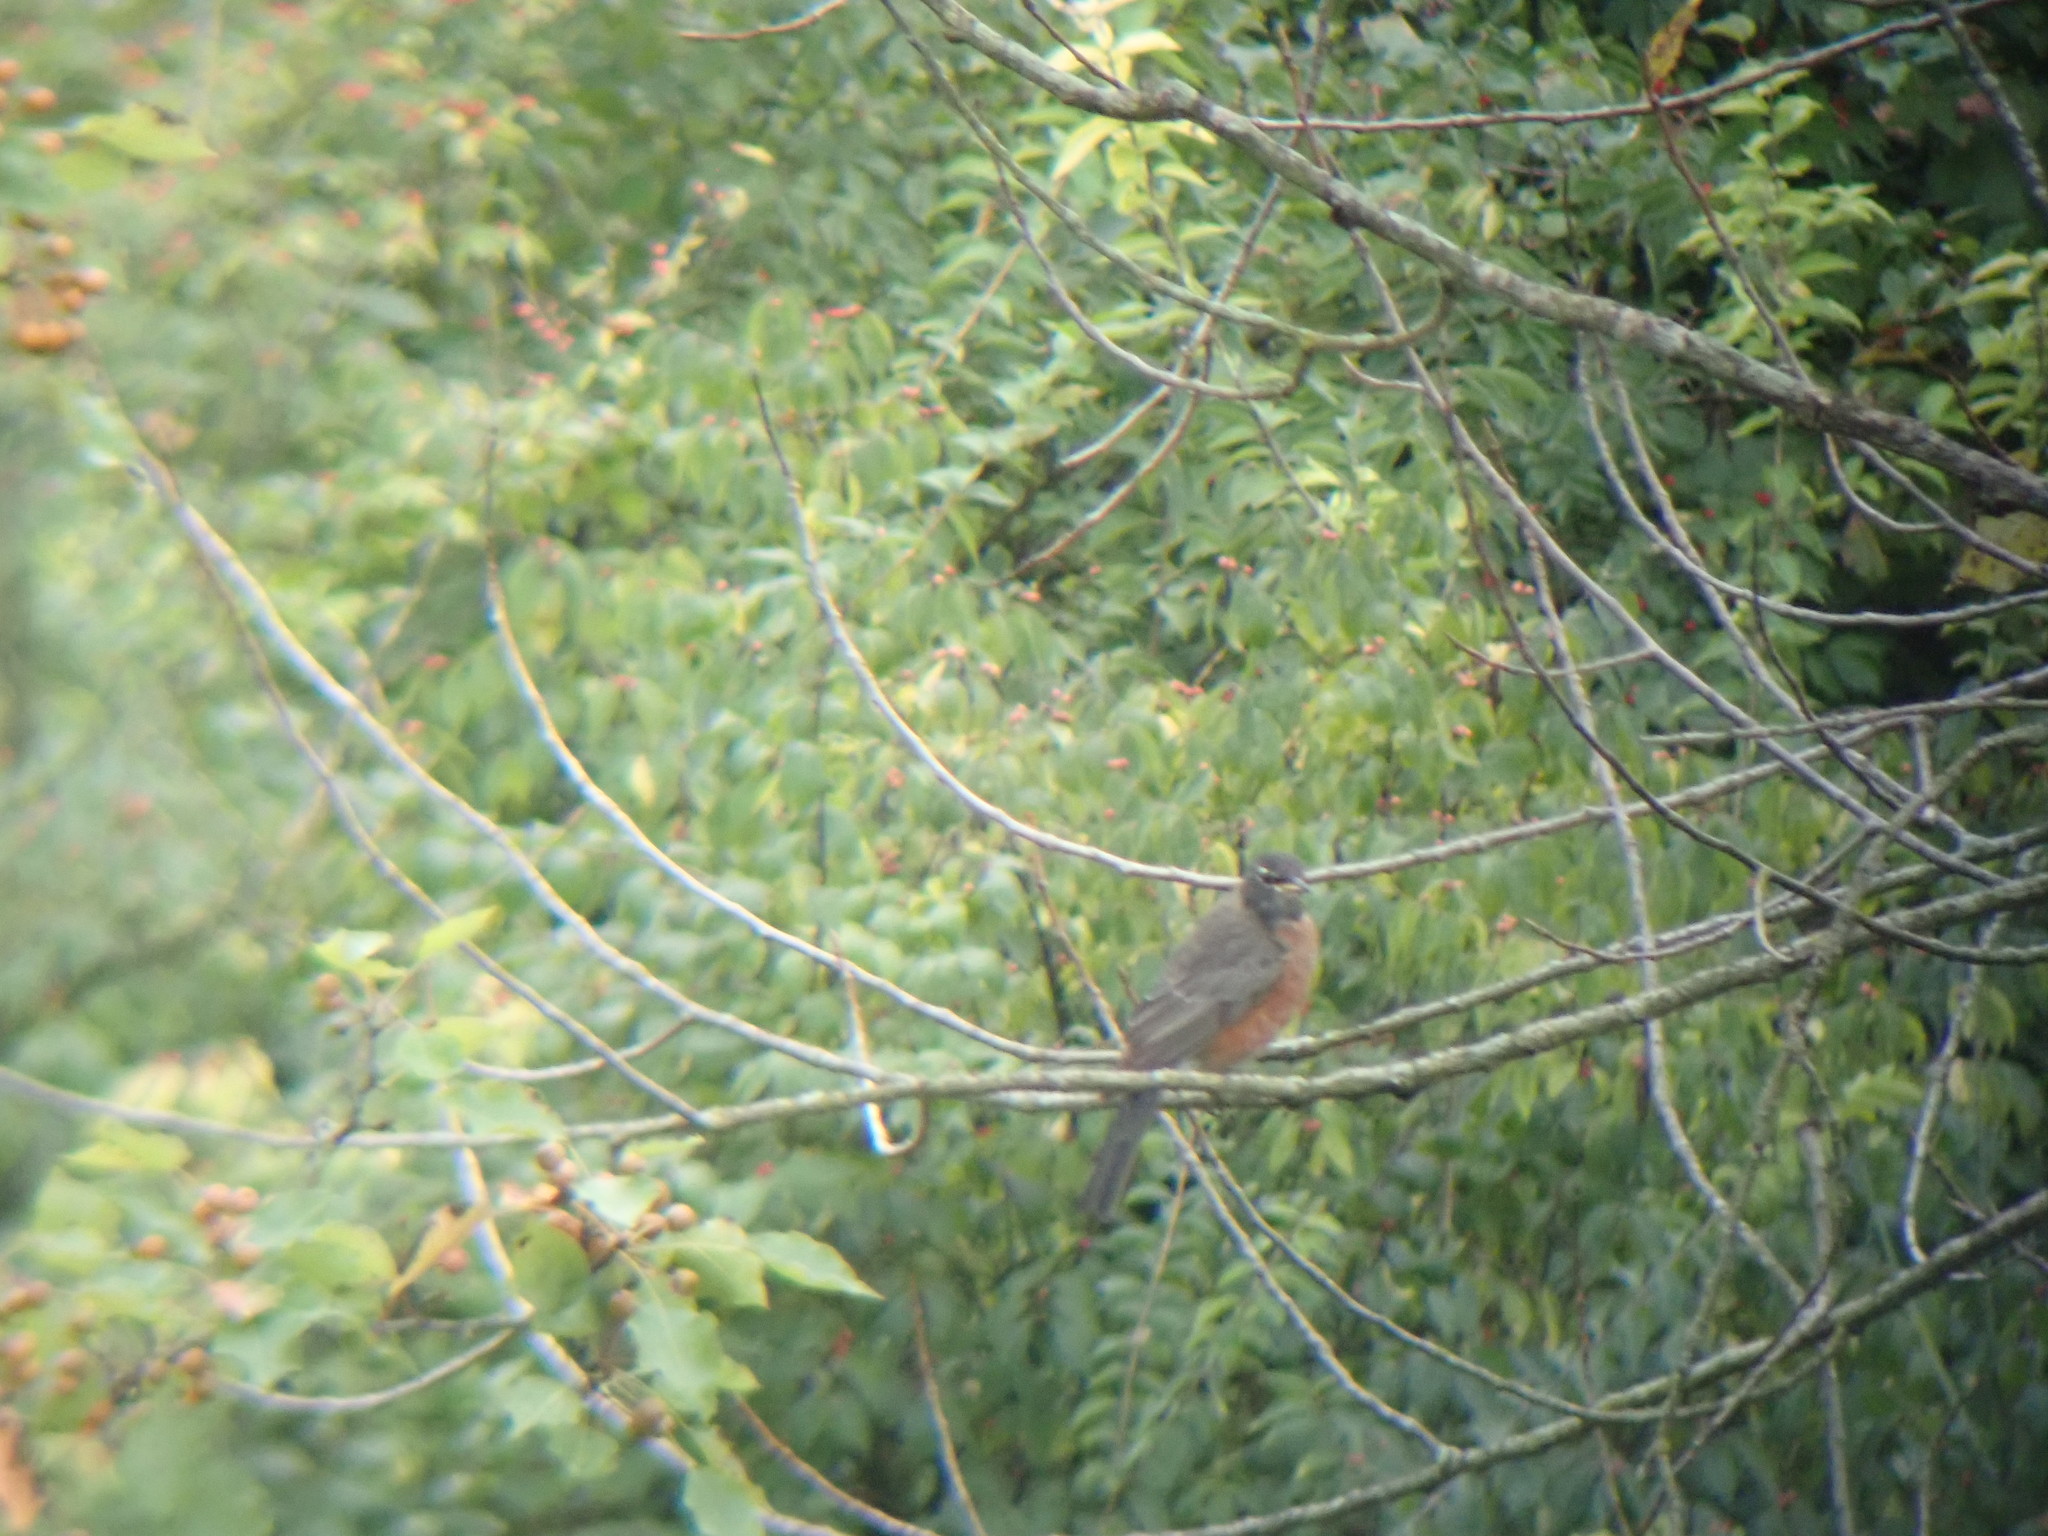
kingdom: Animalia
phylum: Chordata
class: Aves
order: Passeriformes
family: Turdidae
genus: Turdus
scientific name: Turdus migratorius
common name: American robin
